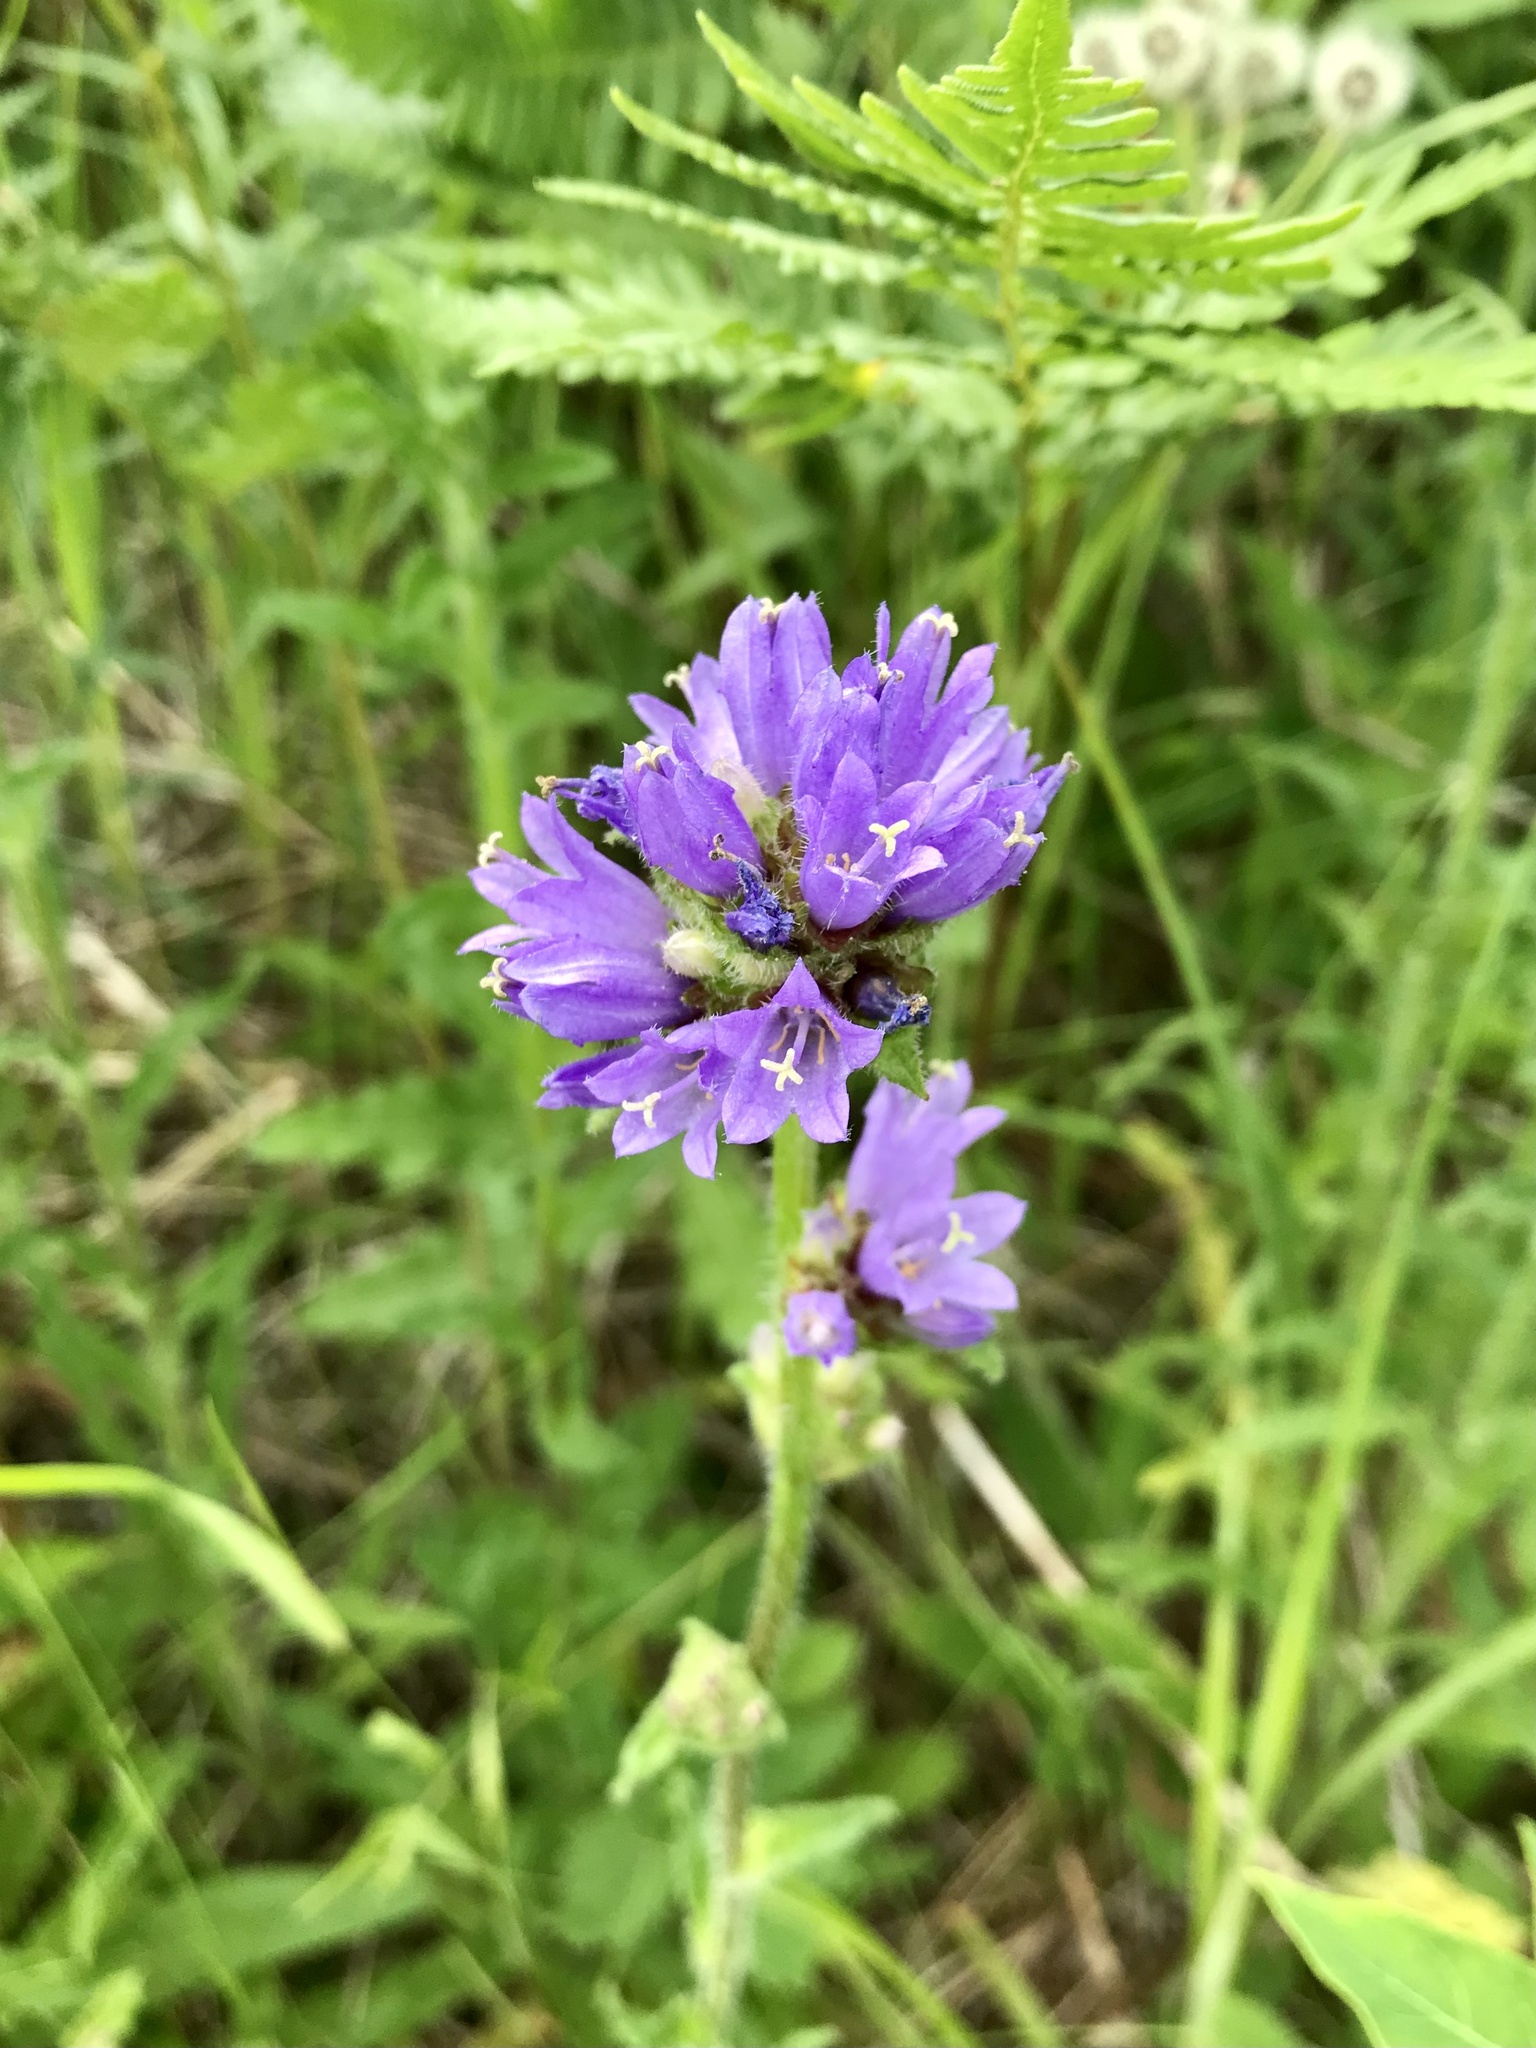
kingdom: Plantae
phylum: Tracheophyta
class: Magnoliopsida
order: Asterales
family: Campanulaceae
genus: Campanula
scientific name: Campanula cervicaria
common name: Bristly bellflower
